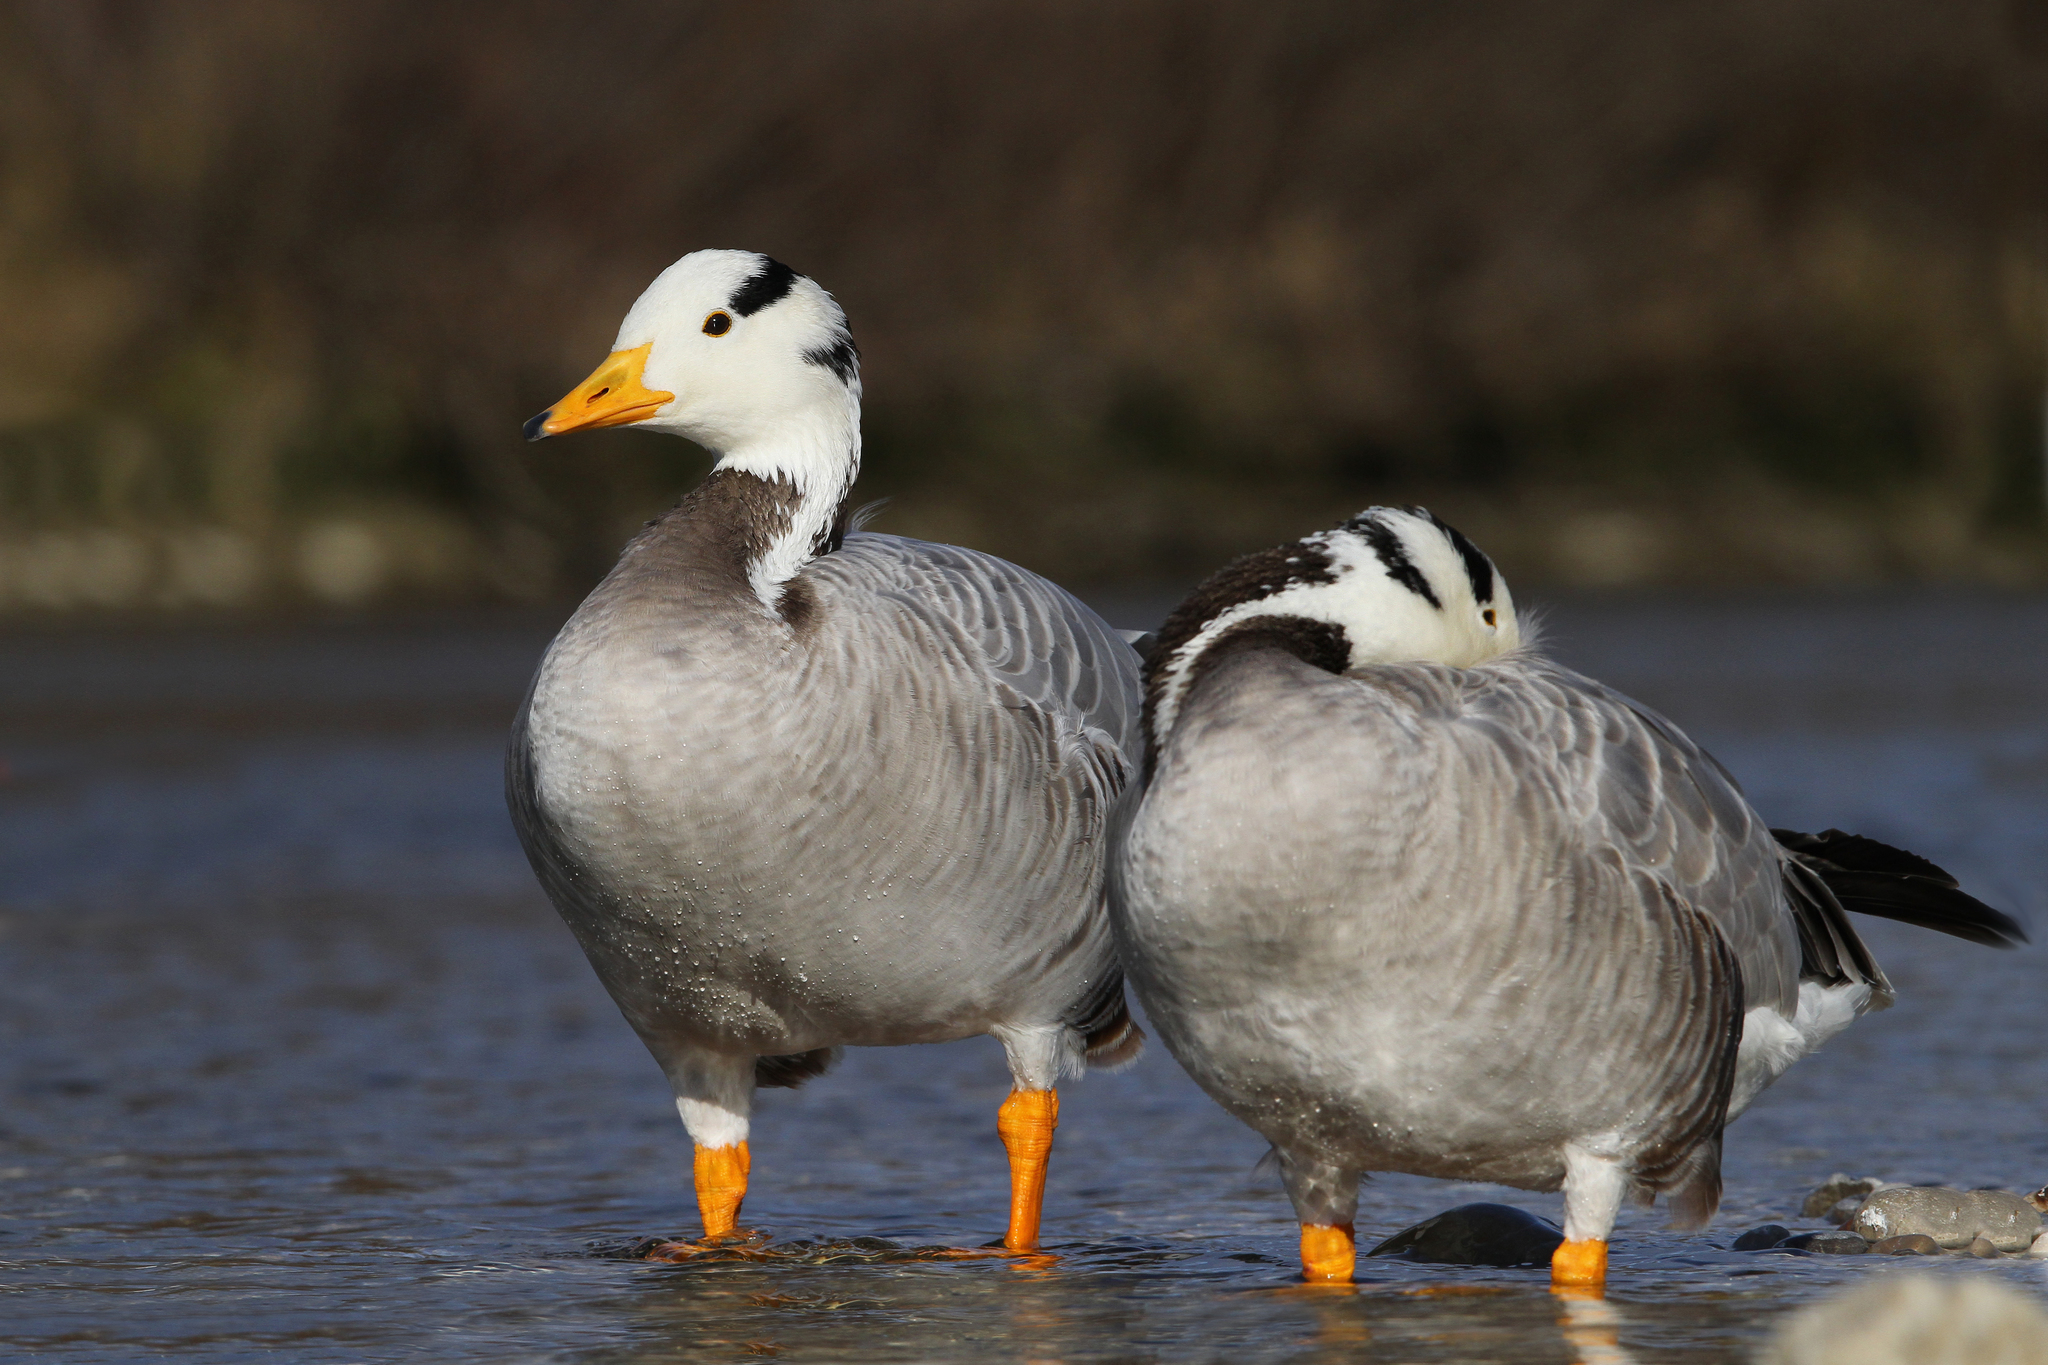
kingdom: Animalia
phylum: Chordata
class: Aves
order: Anseriformes
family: Anatidae
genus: Anser
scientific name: Anser indicus
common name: Bar-headed goose
